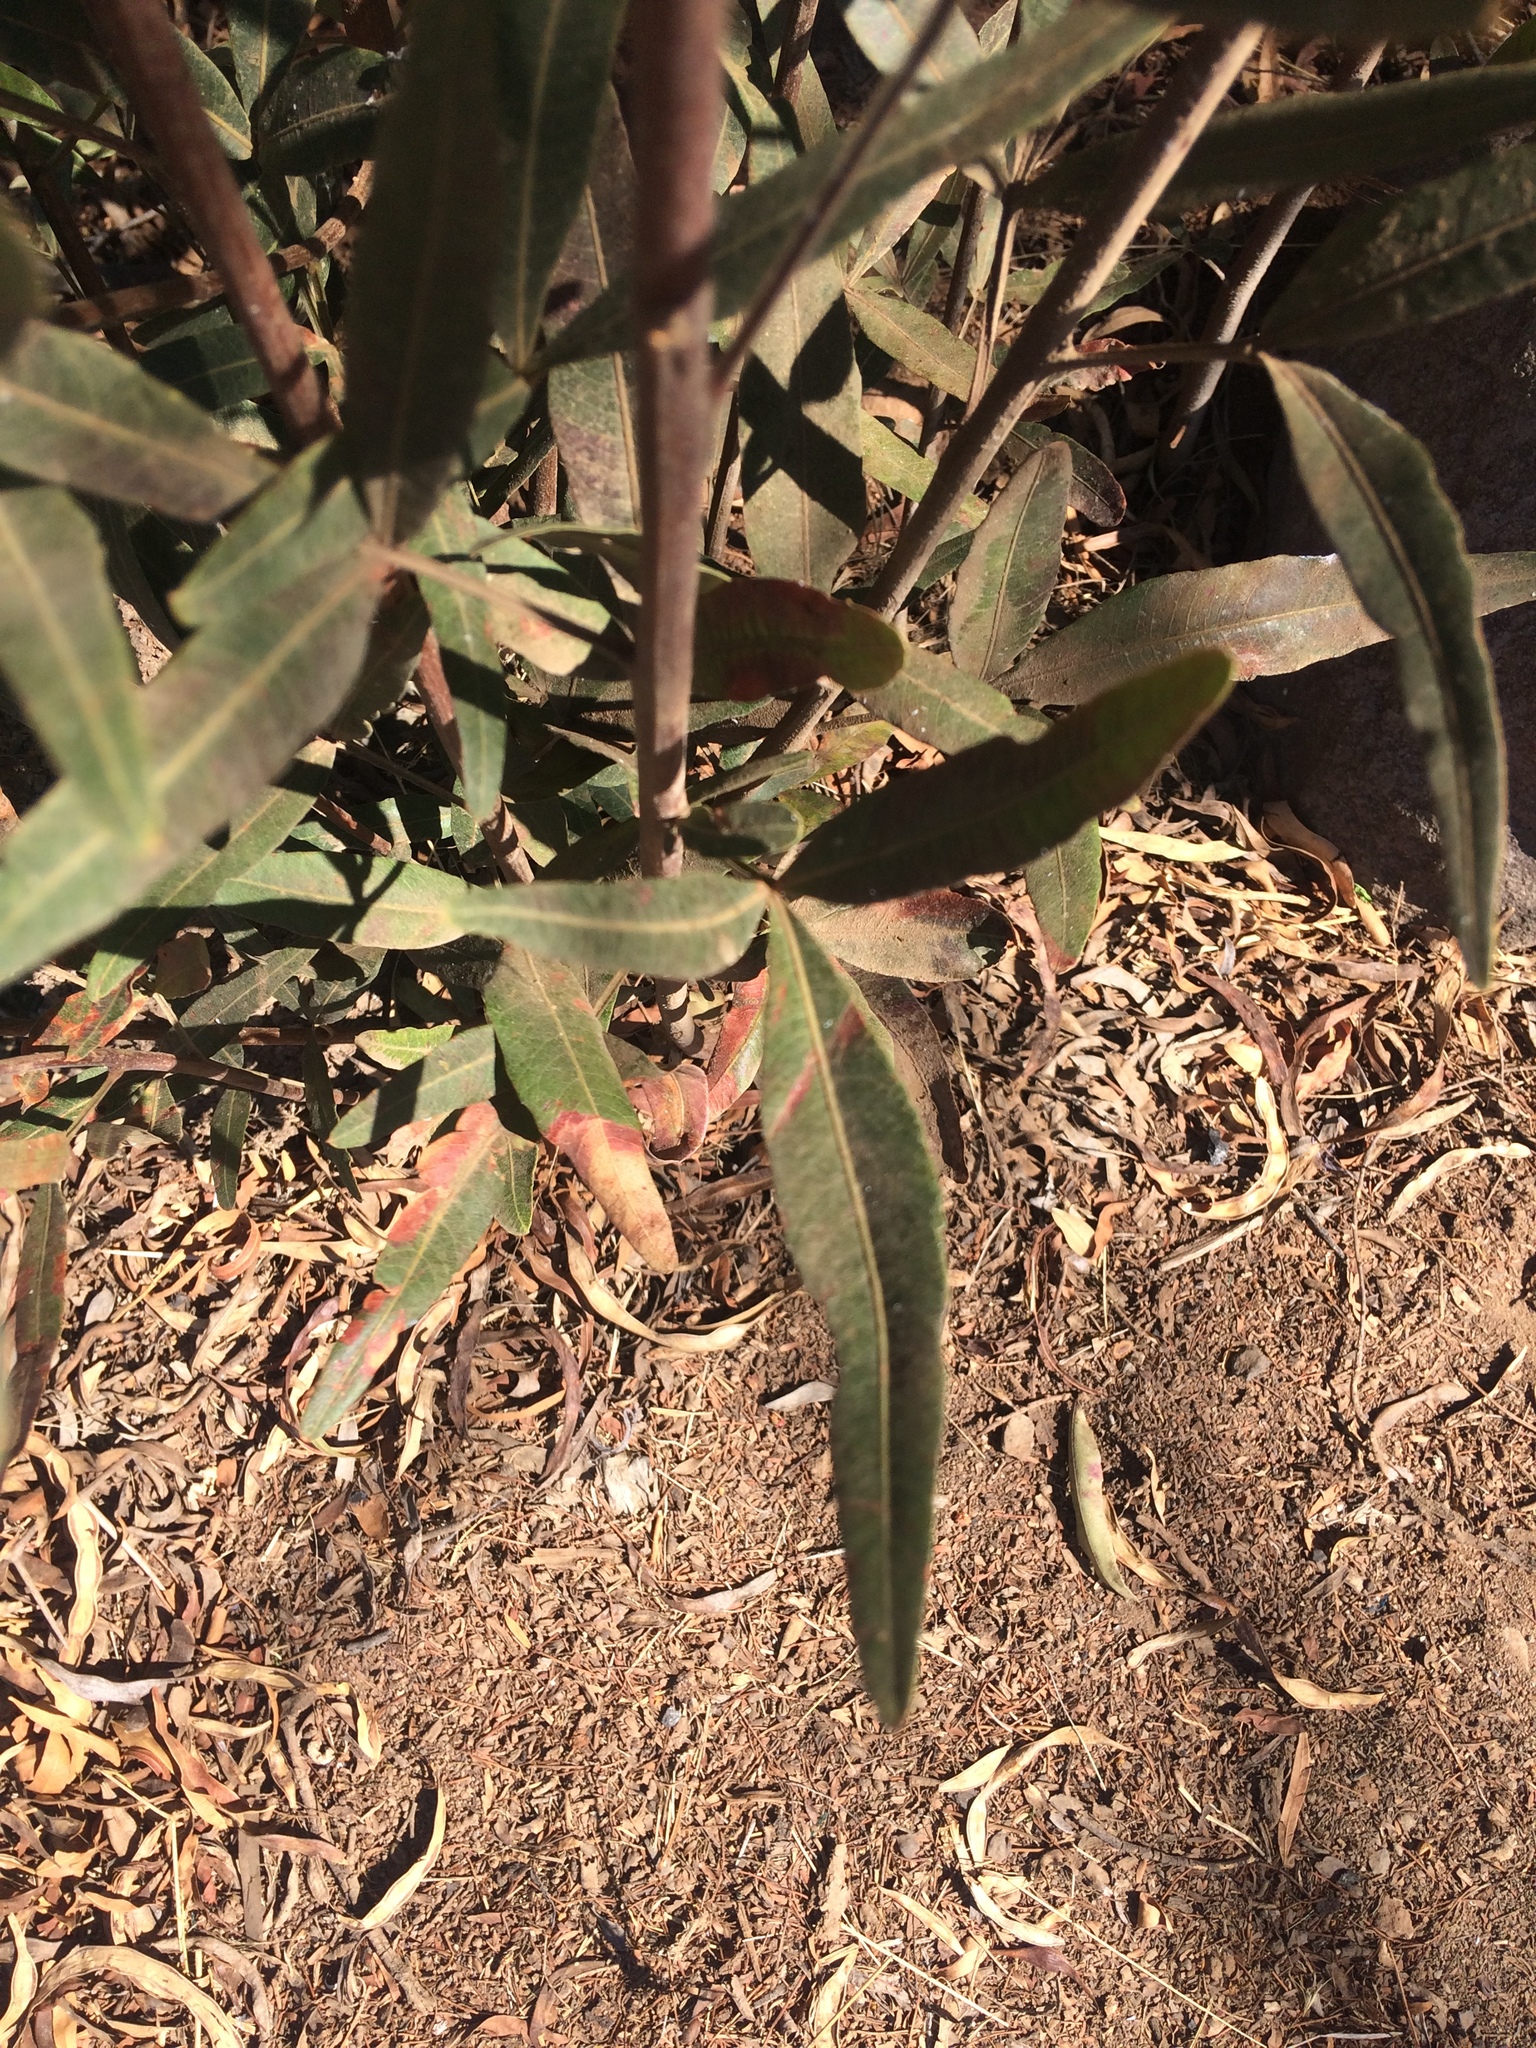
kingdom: Plantae
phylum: Tracheophyta
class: Magnoliopsida
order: Sapindales
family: Anacardiaceae
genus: Searsia
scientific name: Searsia lancea
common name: Cashew
